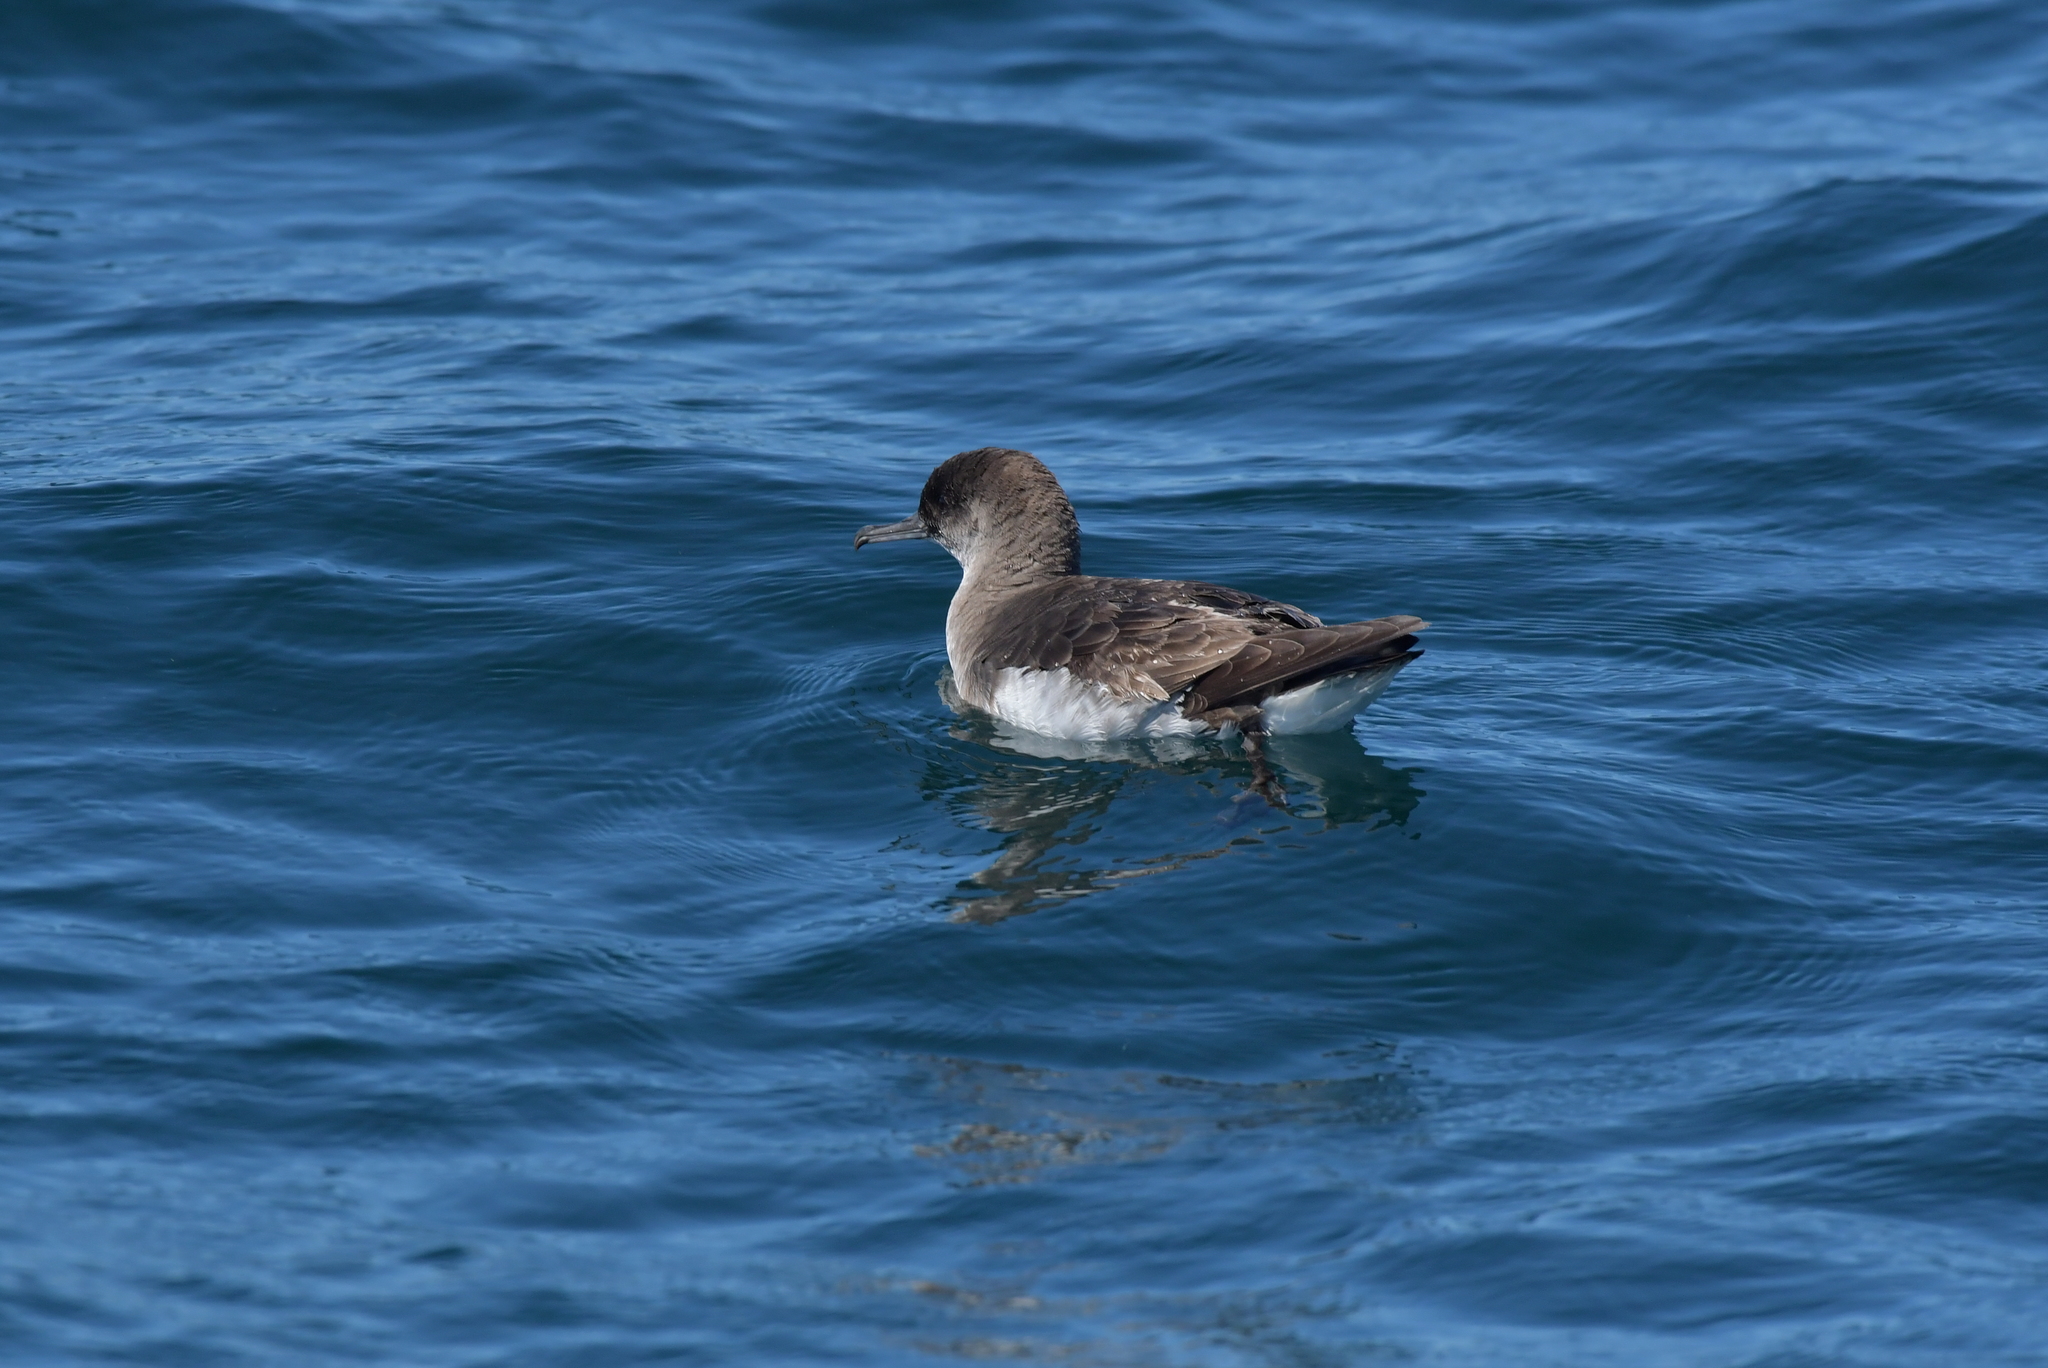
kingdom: Animalia
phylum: Chordata
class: Aves
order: Procellariiformes
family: Procellariidae
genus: Puffinus
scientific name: Puffinus gavia
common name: Fluttering shearwater
